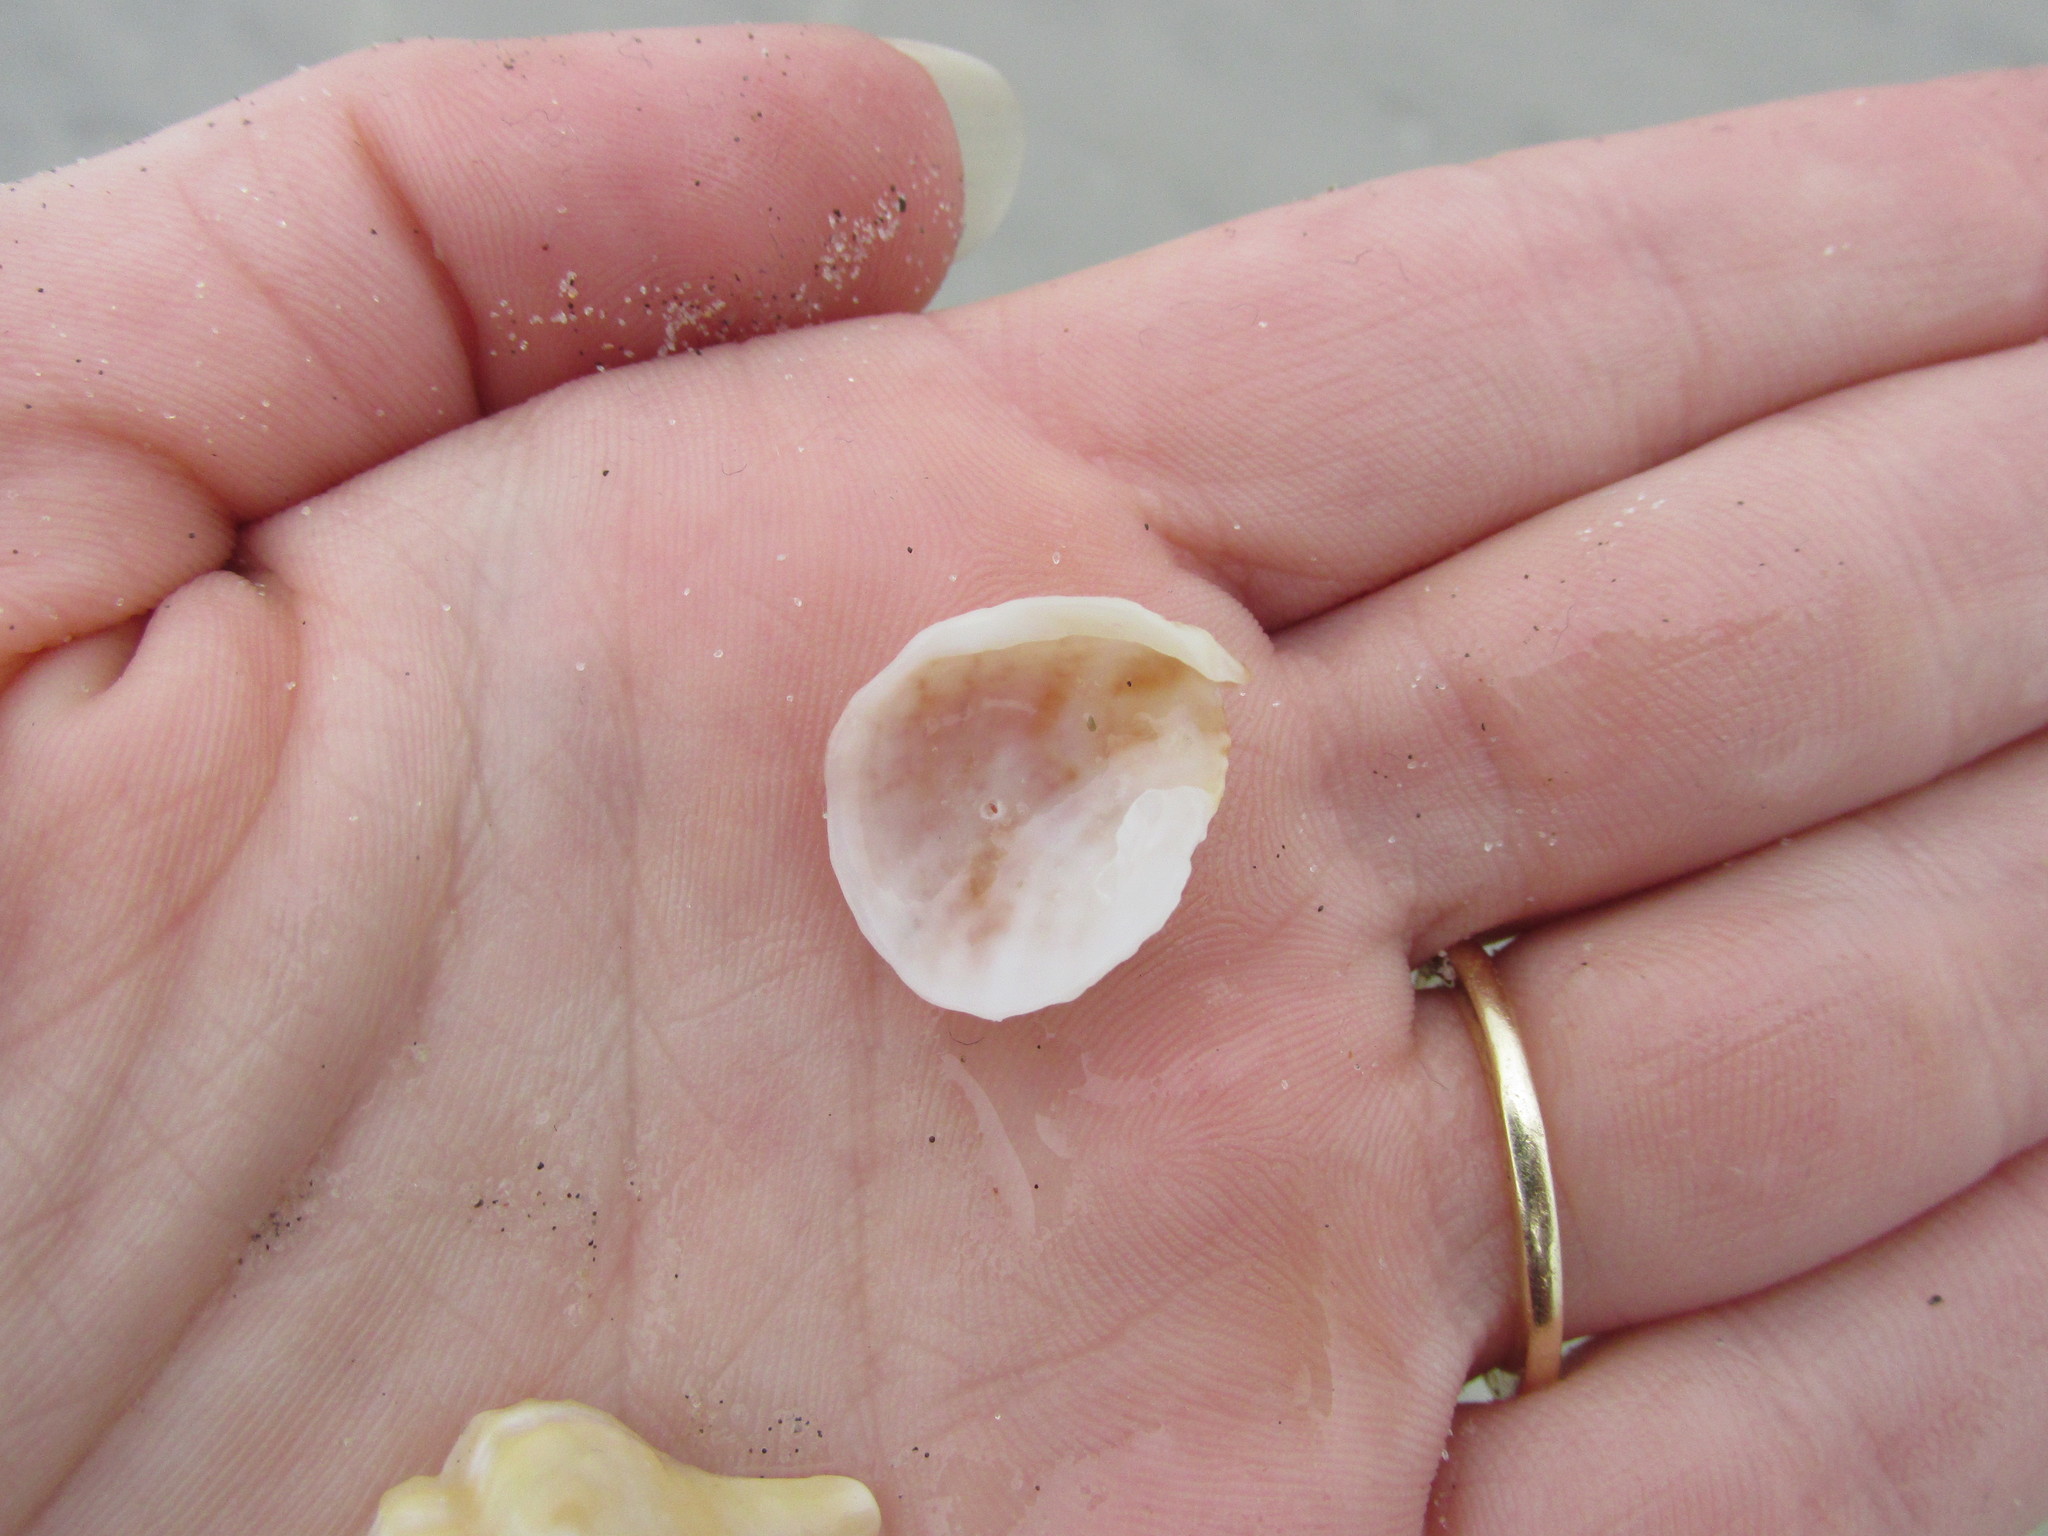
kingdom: Animalia
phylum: Mollusca
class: Gastropoda
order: Littorinimorpha
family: Calyptraeidae
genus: Bostrycapulus
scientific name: Bostrycapulus aculeatus
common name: Spiny slippersnail
